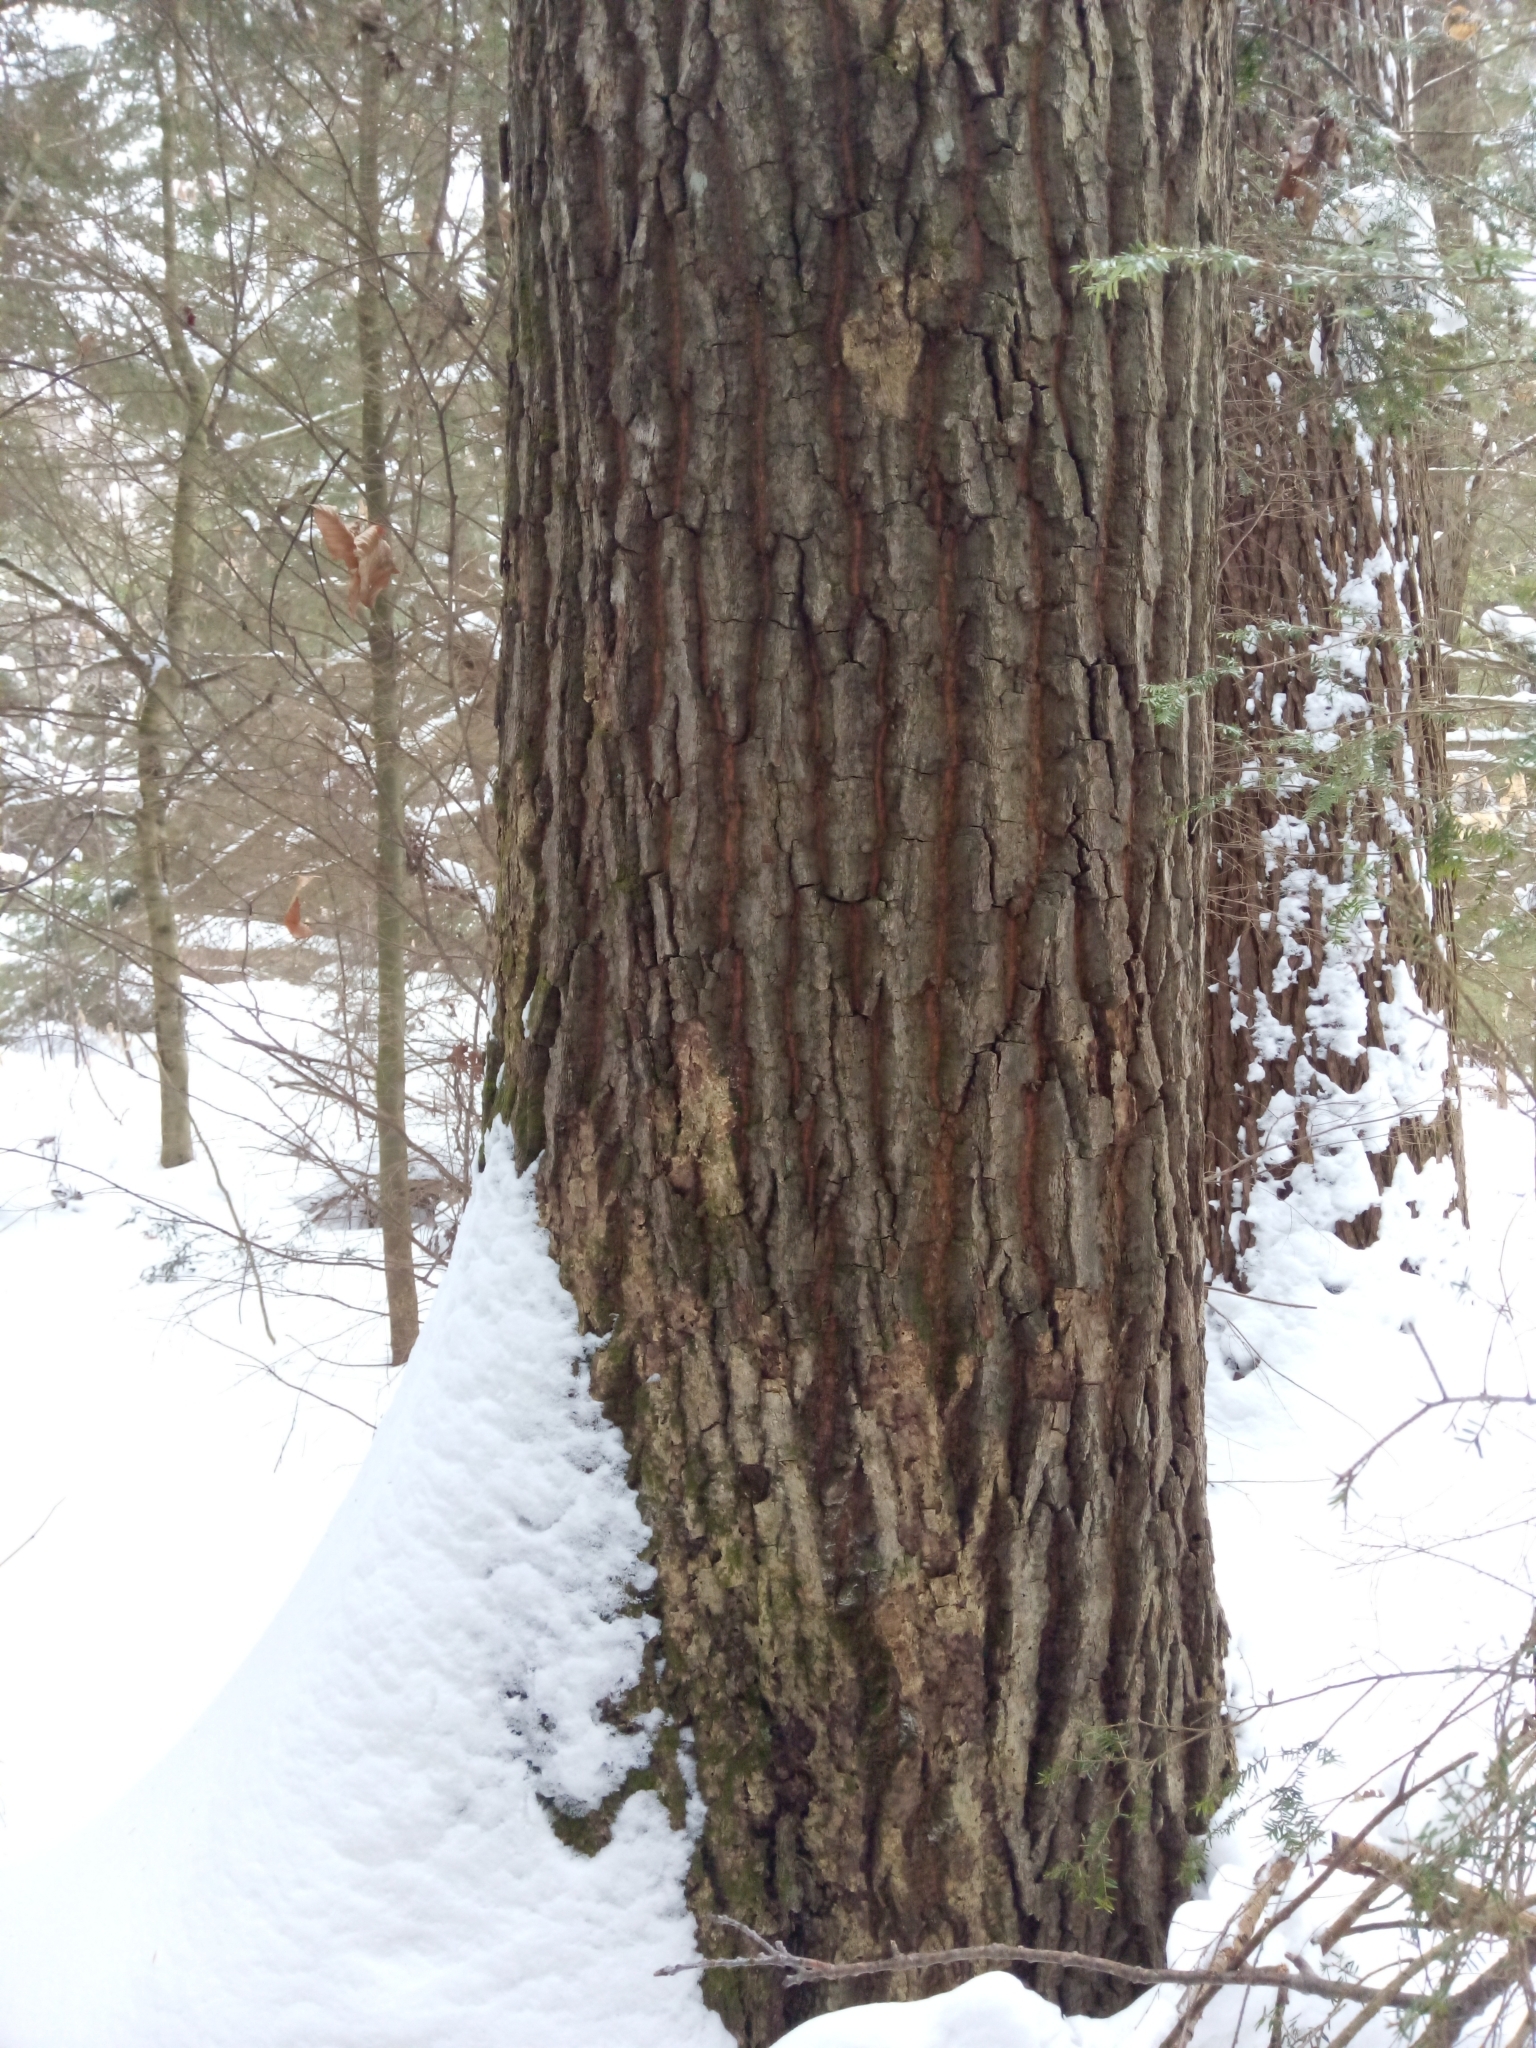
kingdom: Plantae
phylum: Tracheophyta
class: Magnoliopsida
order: Fagales
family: Fagaceae
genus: Quercus
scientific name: Quercus rubra
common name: Red oak
